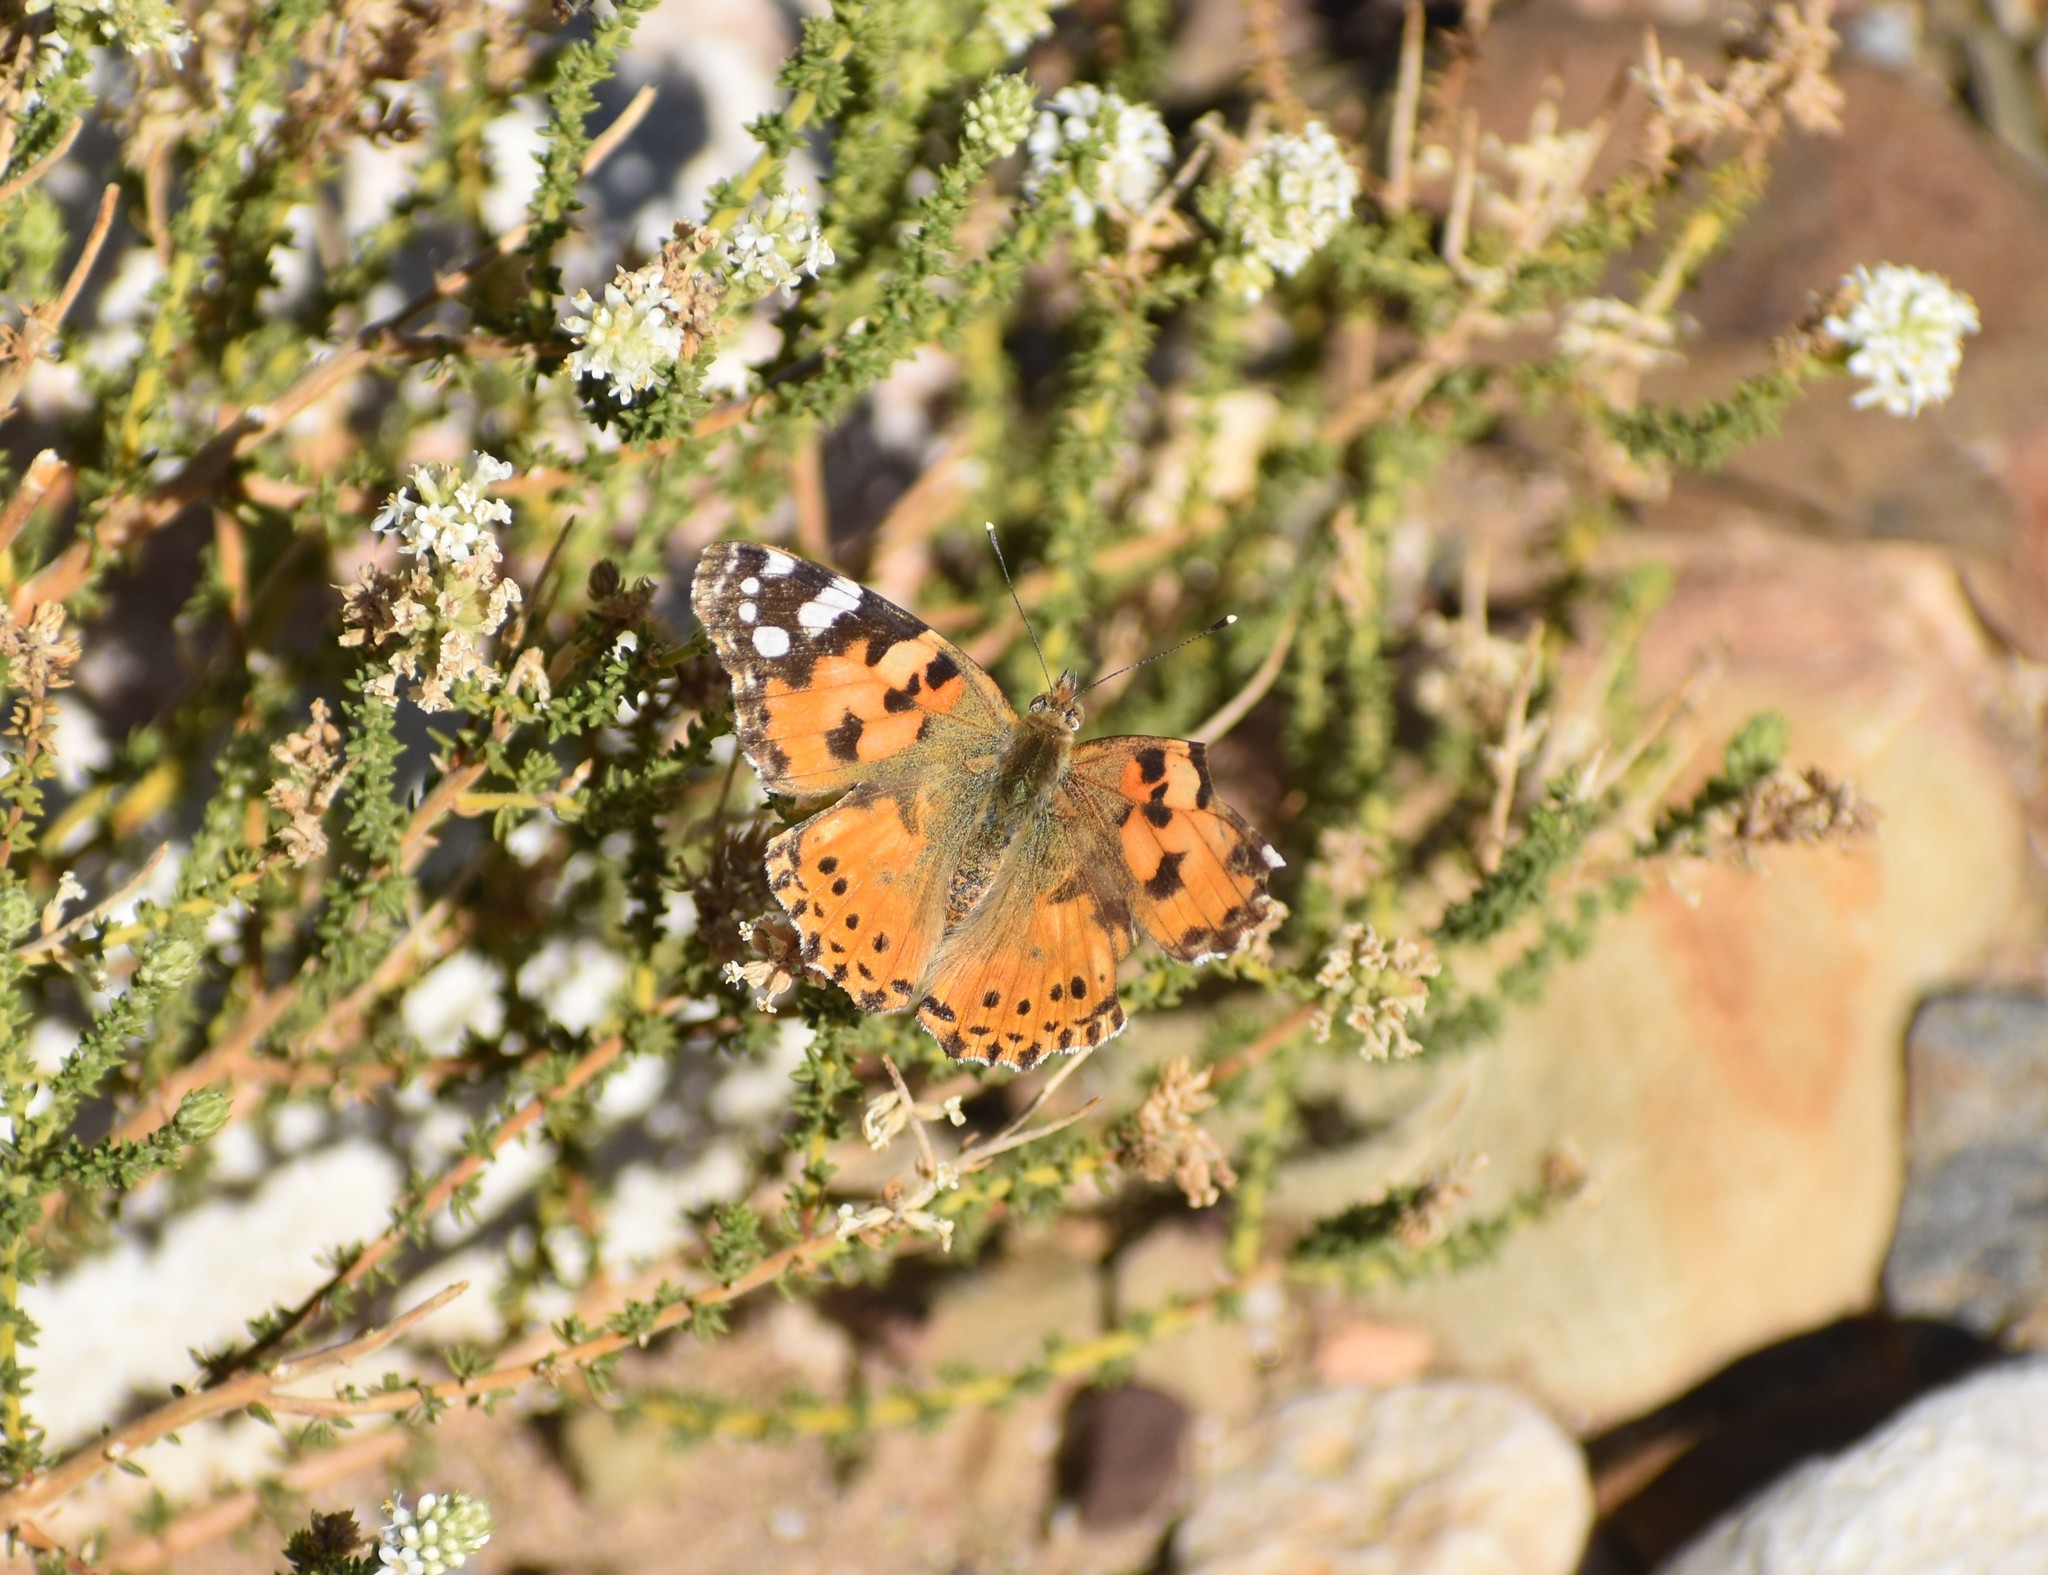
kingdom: Animalia
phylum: Arthropoda
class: Insecta
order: Lepidoptera
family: Nymphalidae
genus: Vanessa
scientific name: Vanessa cardui
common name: Painted lady
